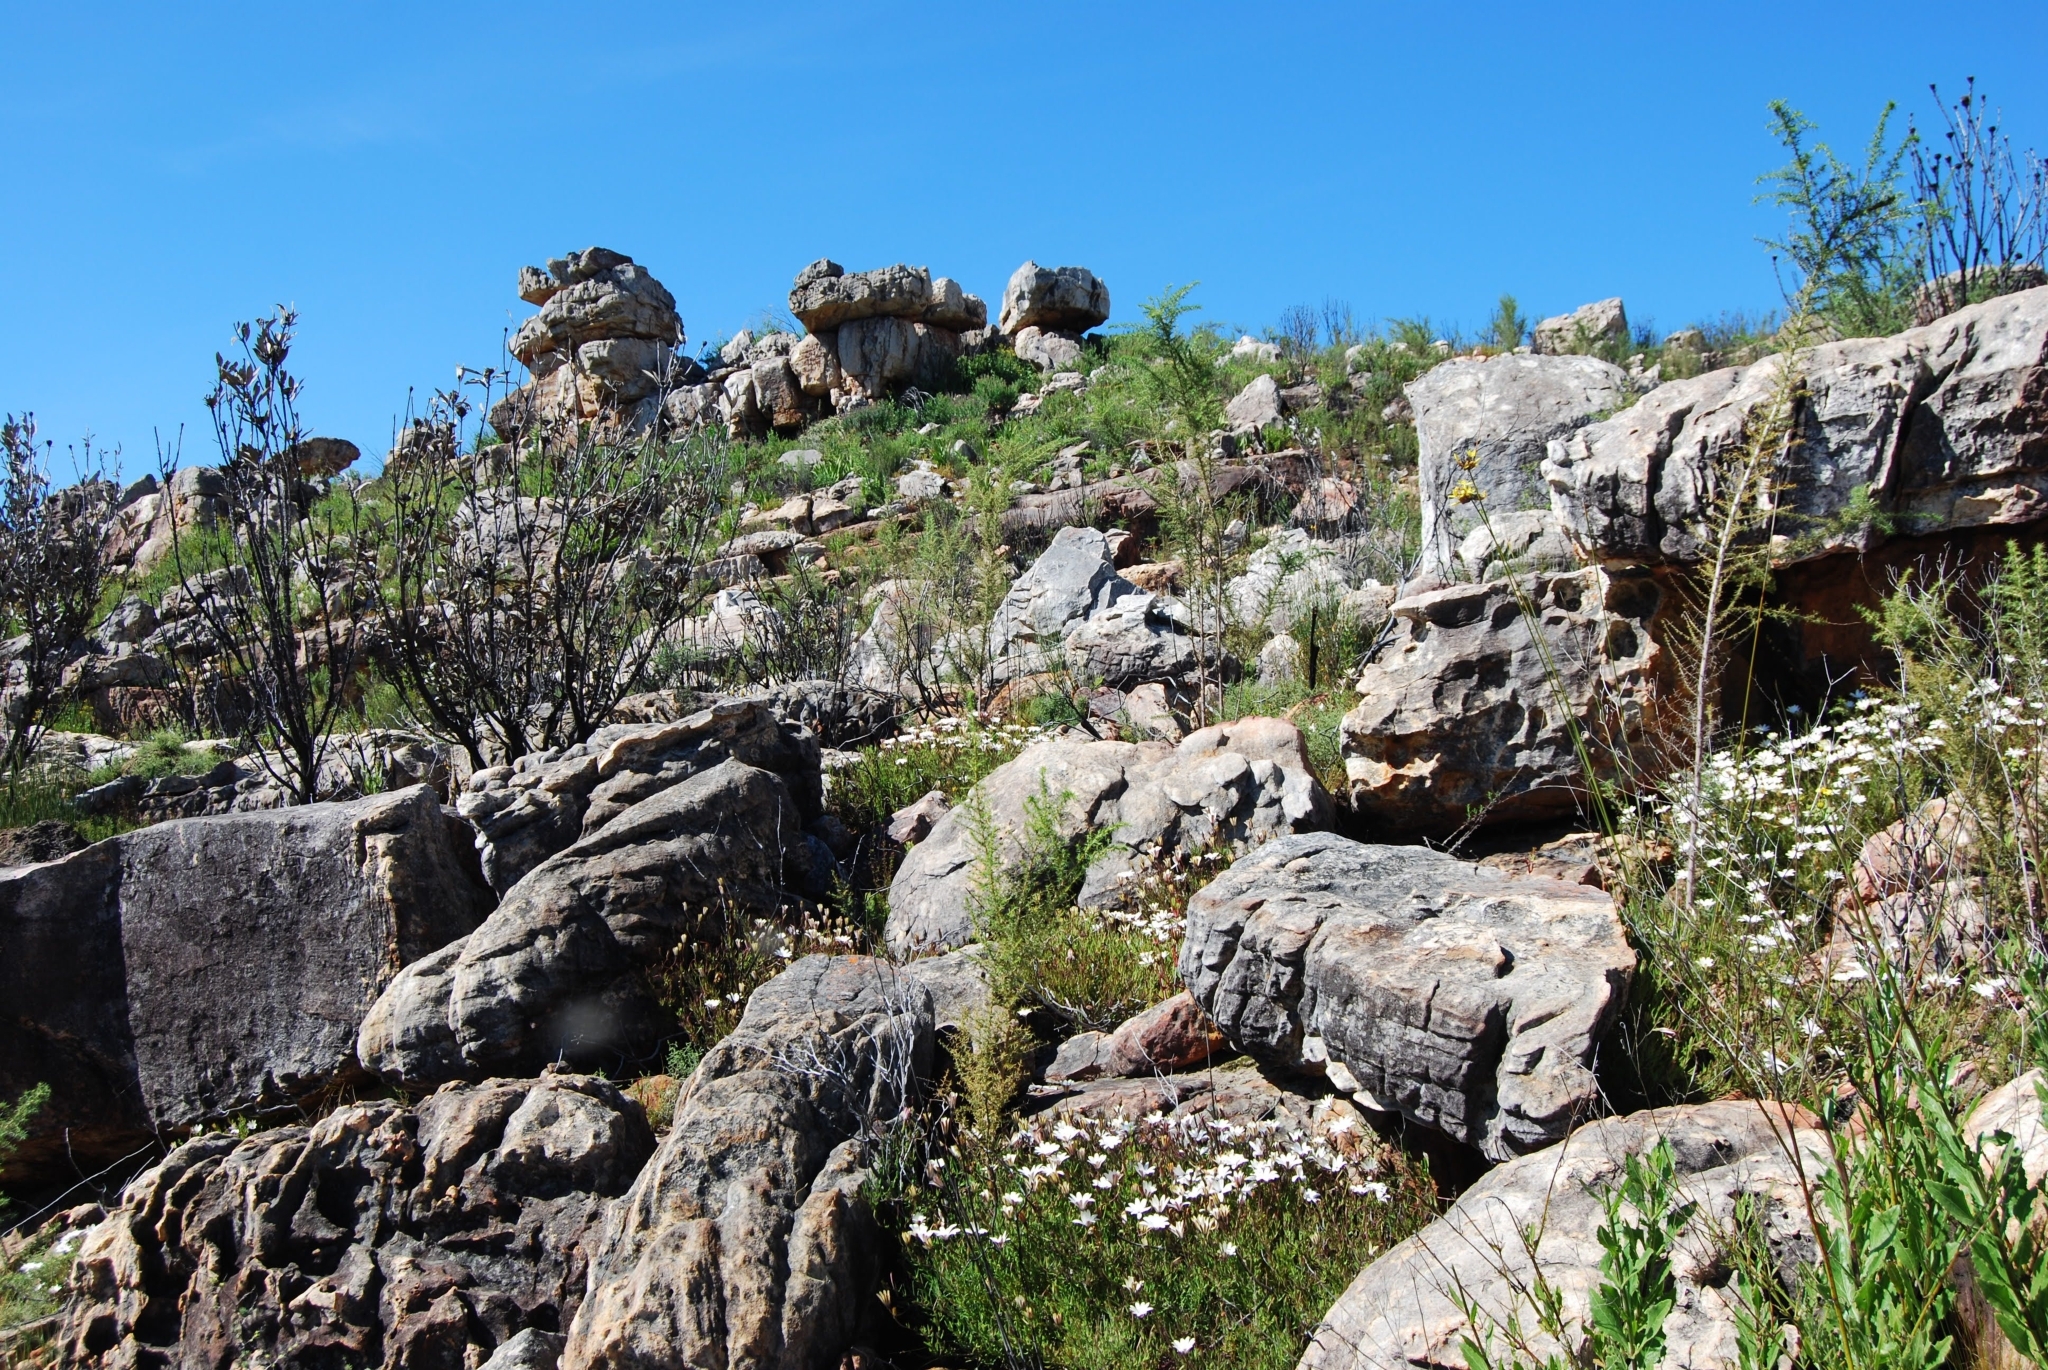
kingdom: Plantae
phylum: Tracheophyta
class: Magnoliopsida
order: Asterales
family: Asteraceae
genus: Dimorphotheca
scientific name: Dimorphotheca acutifolia
